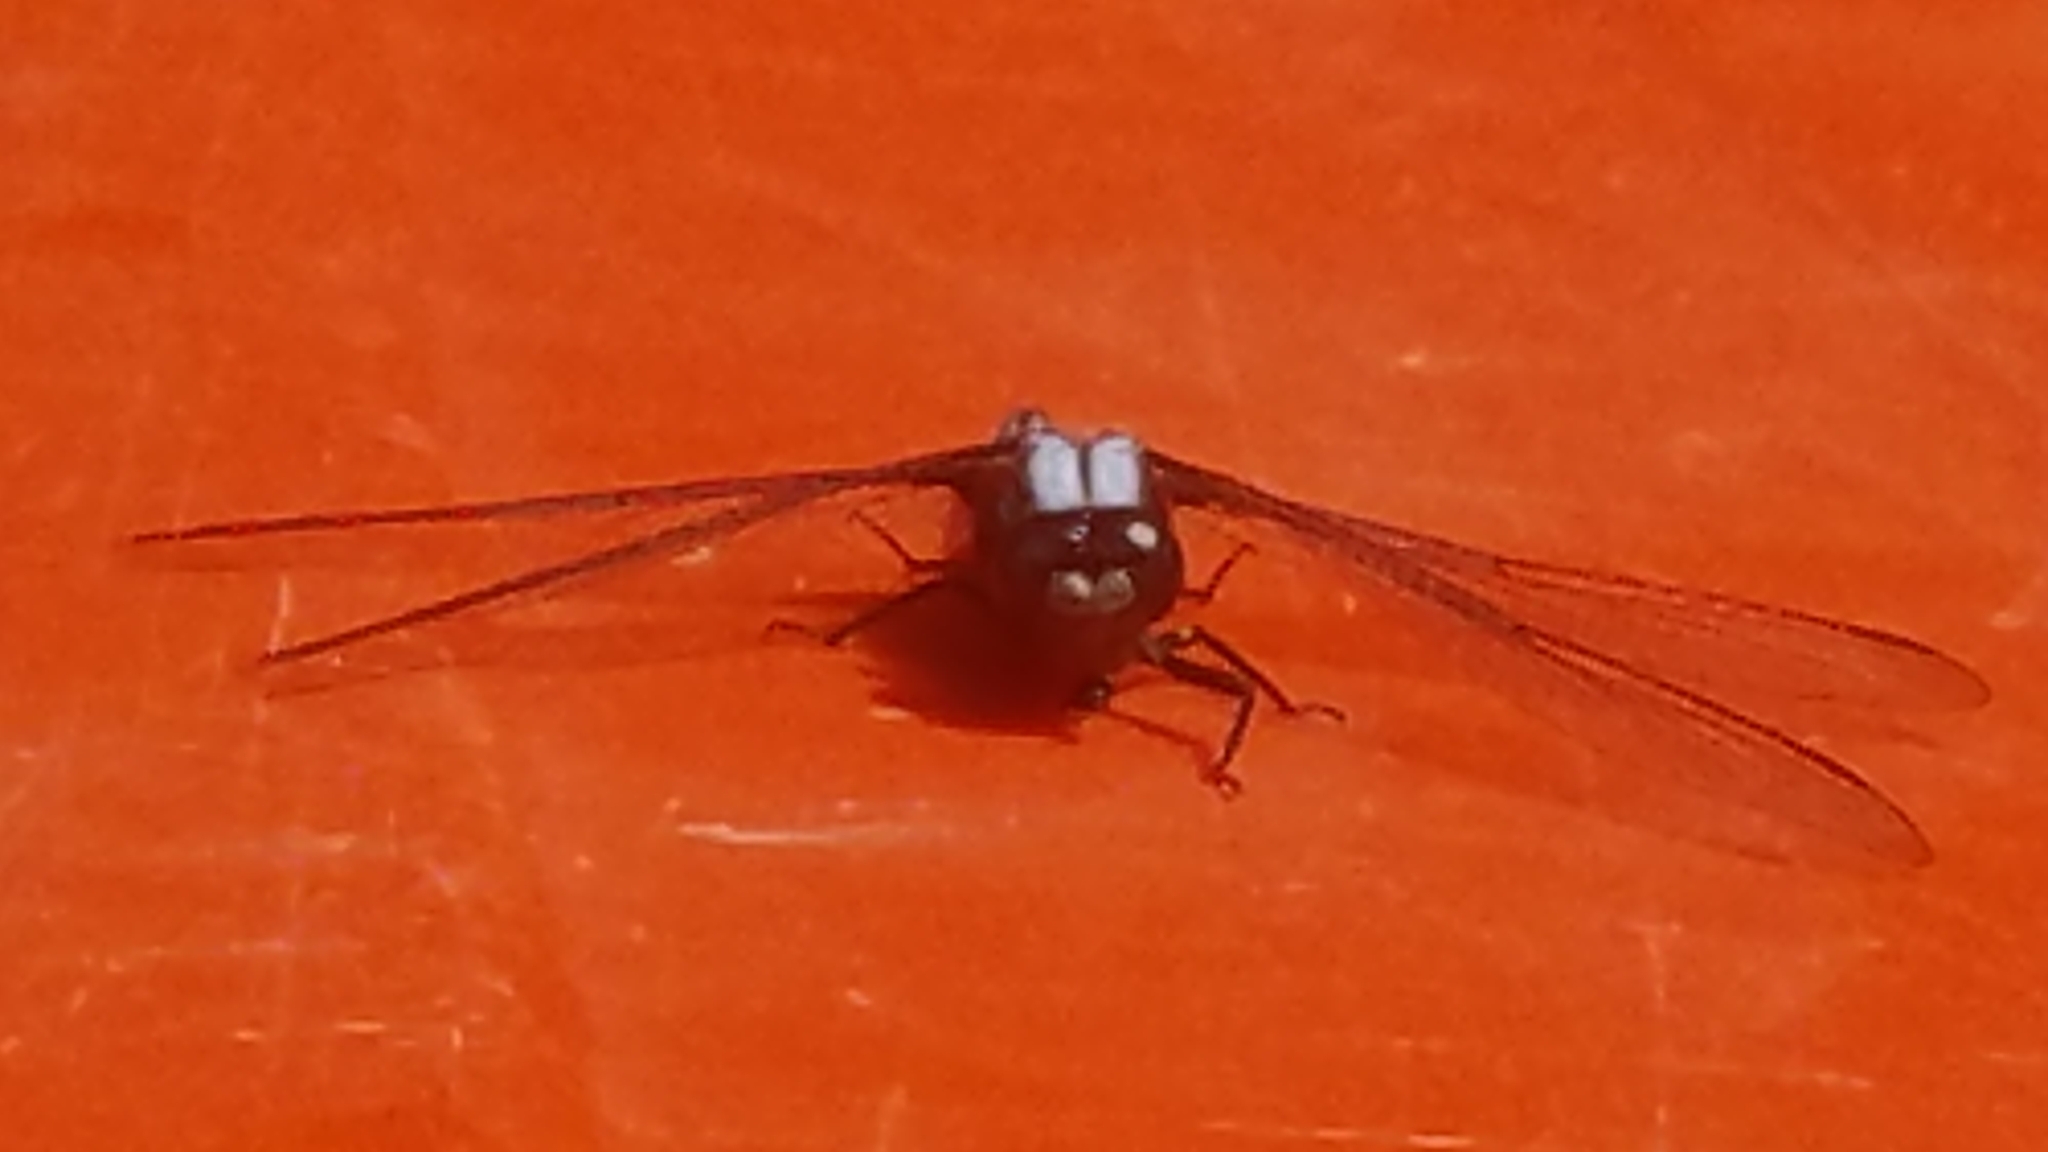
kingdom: Animalia
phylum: Arthropoda
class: Insecta
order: Odonata
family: Libellulidae
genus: Ladona
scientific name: Ladona julia
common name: Chalk-fronted corporal
